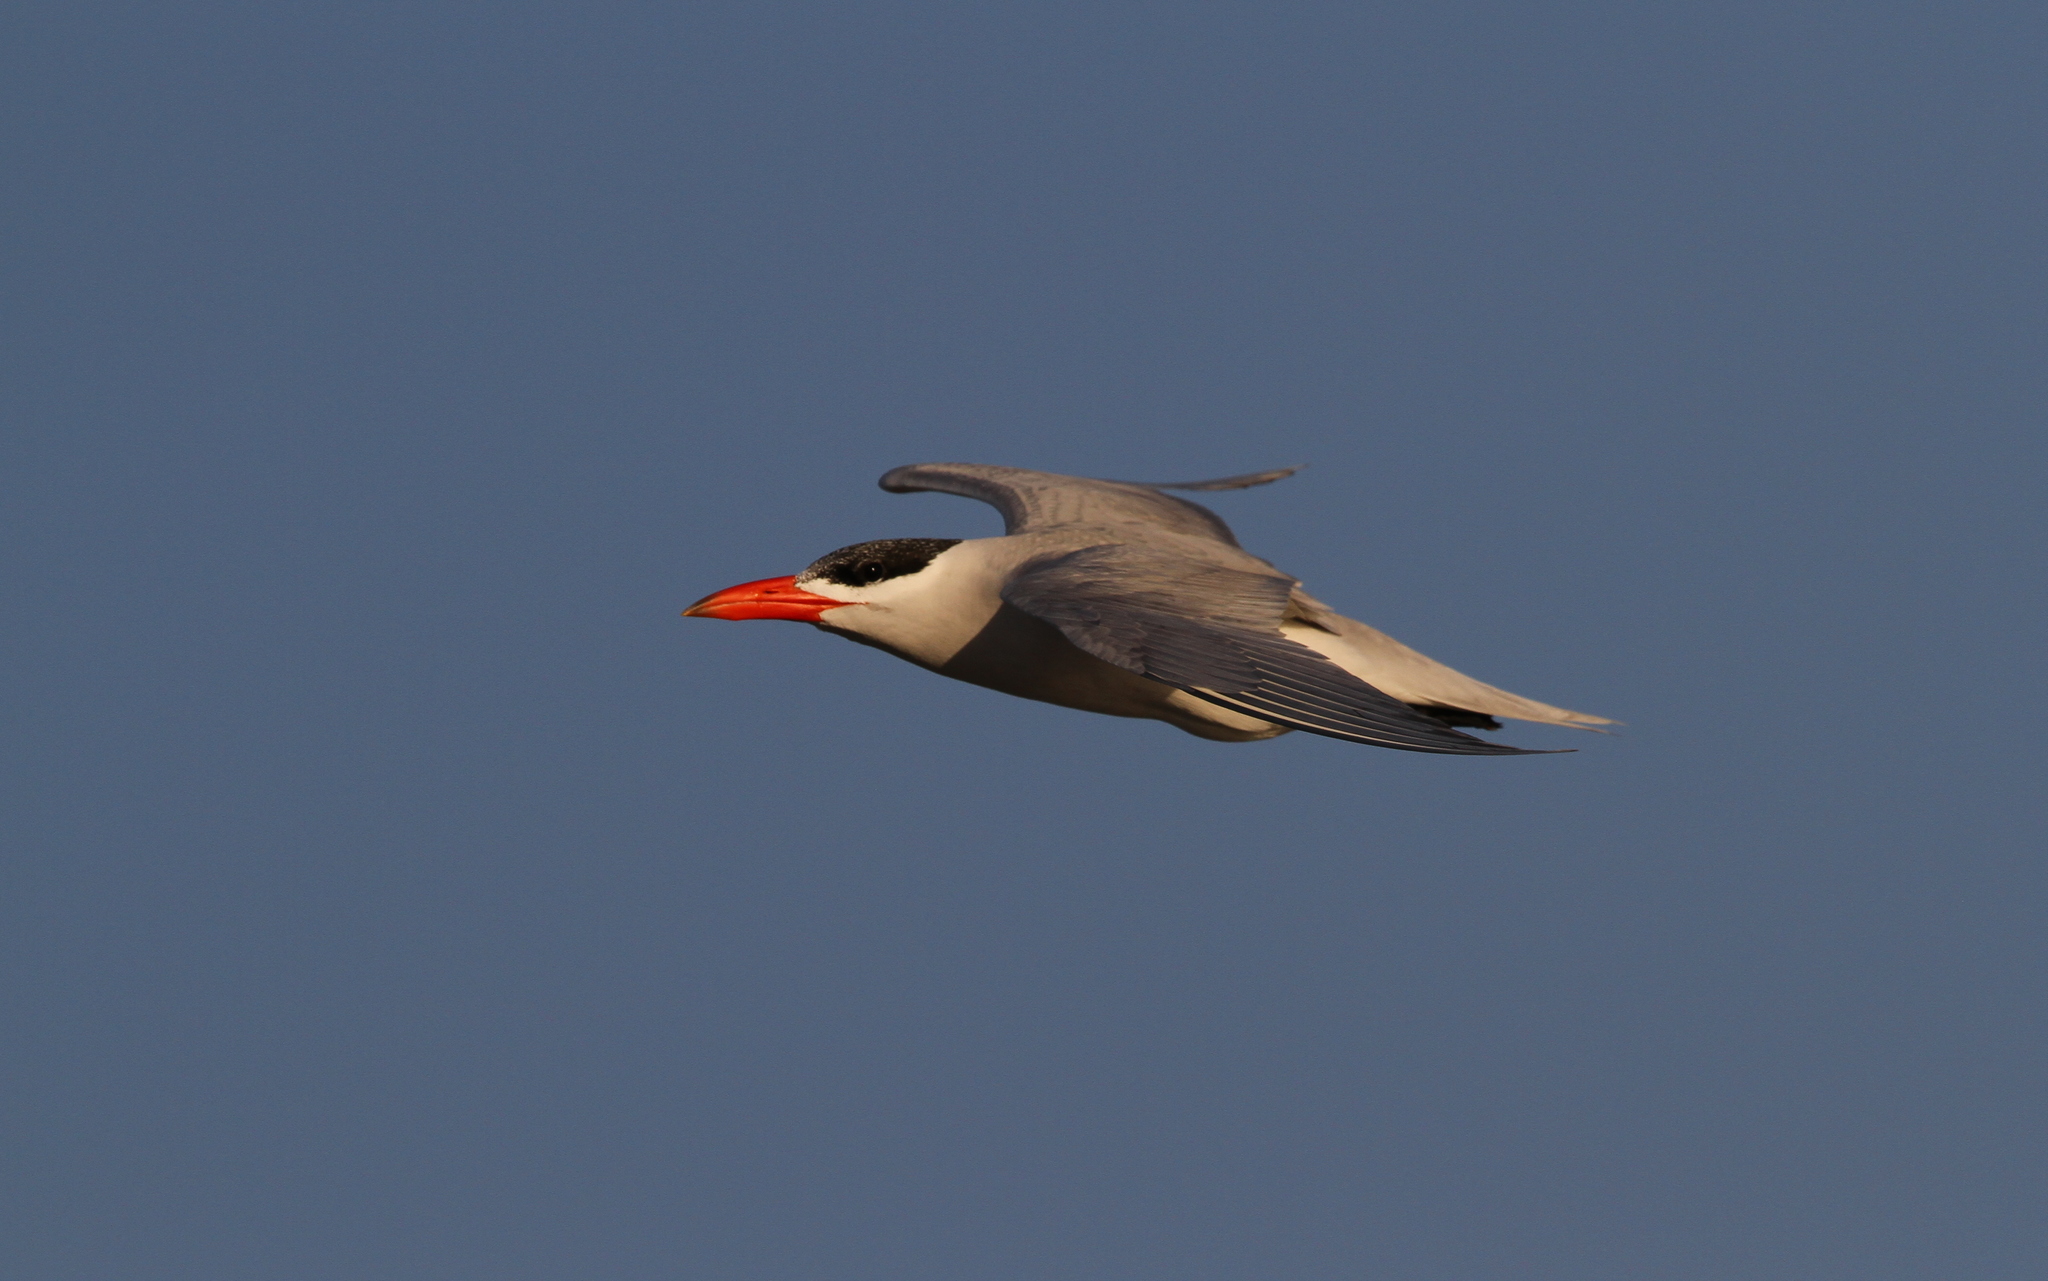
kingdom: Animalia
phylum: Chordata
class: Aves
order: Charadriiformes
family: Laridae
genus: Hydroprogne
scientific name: Hydroprogne caspia
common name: Caspian tern
